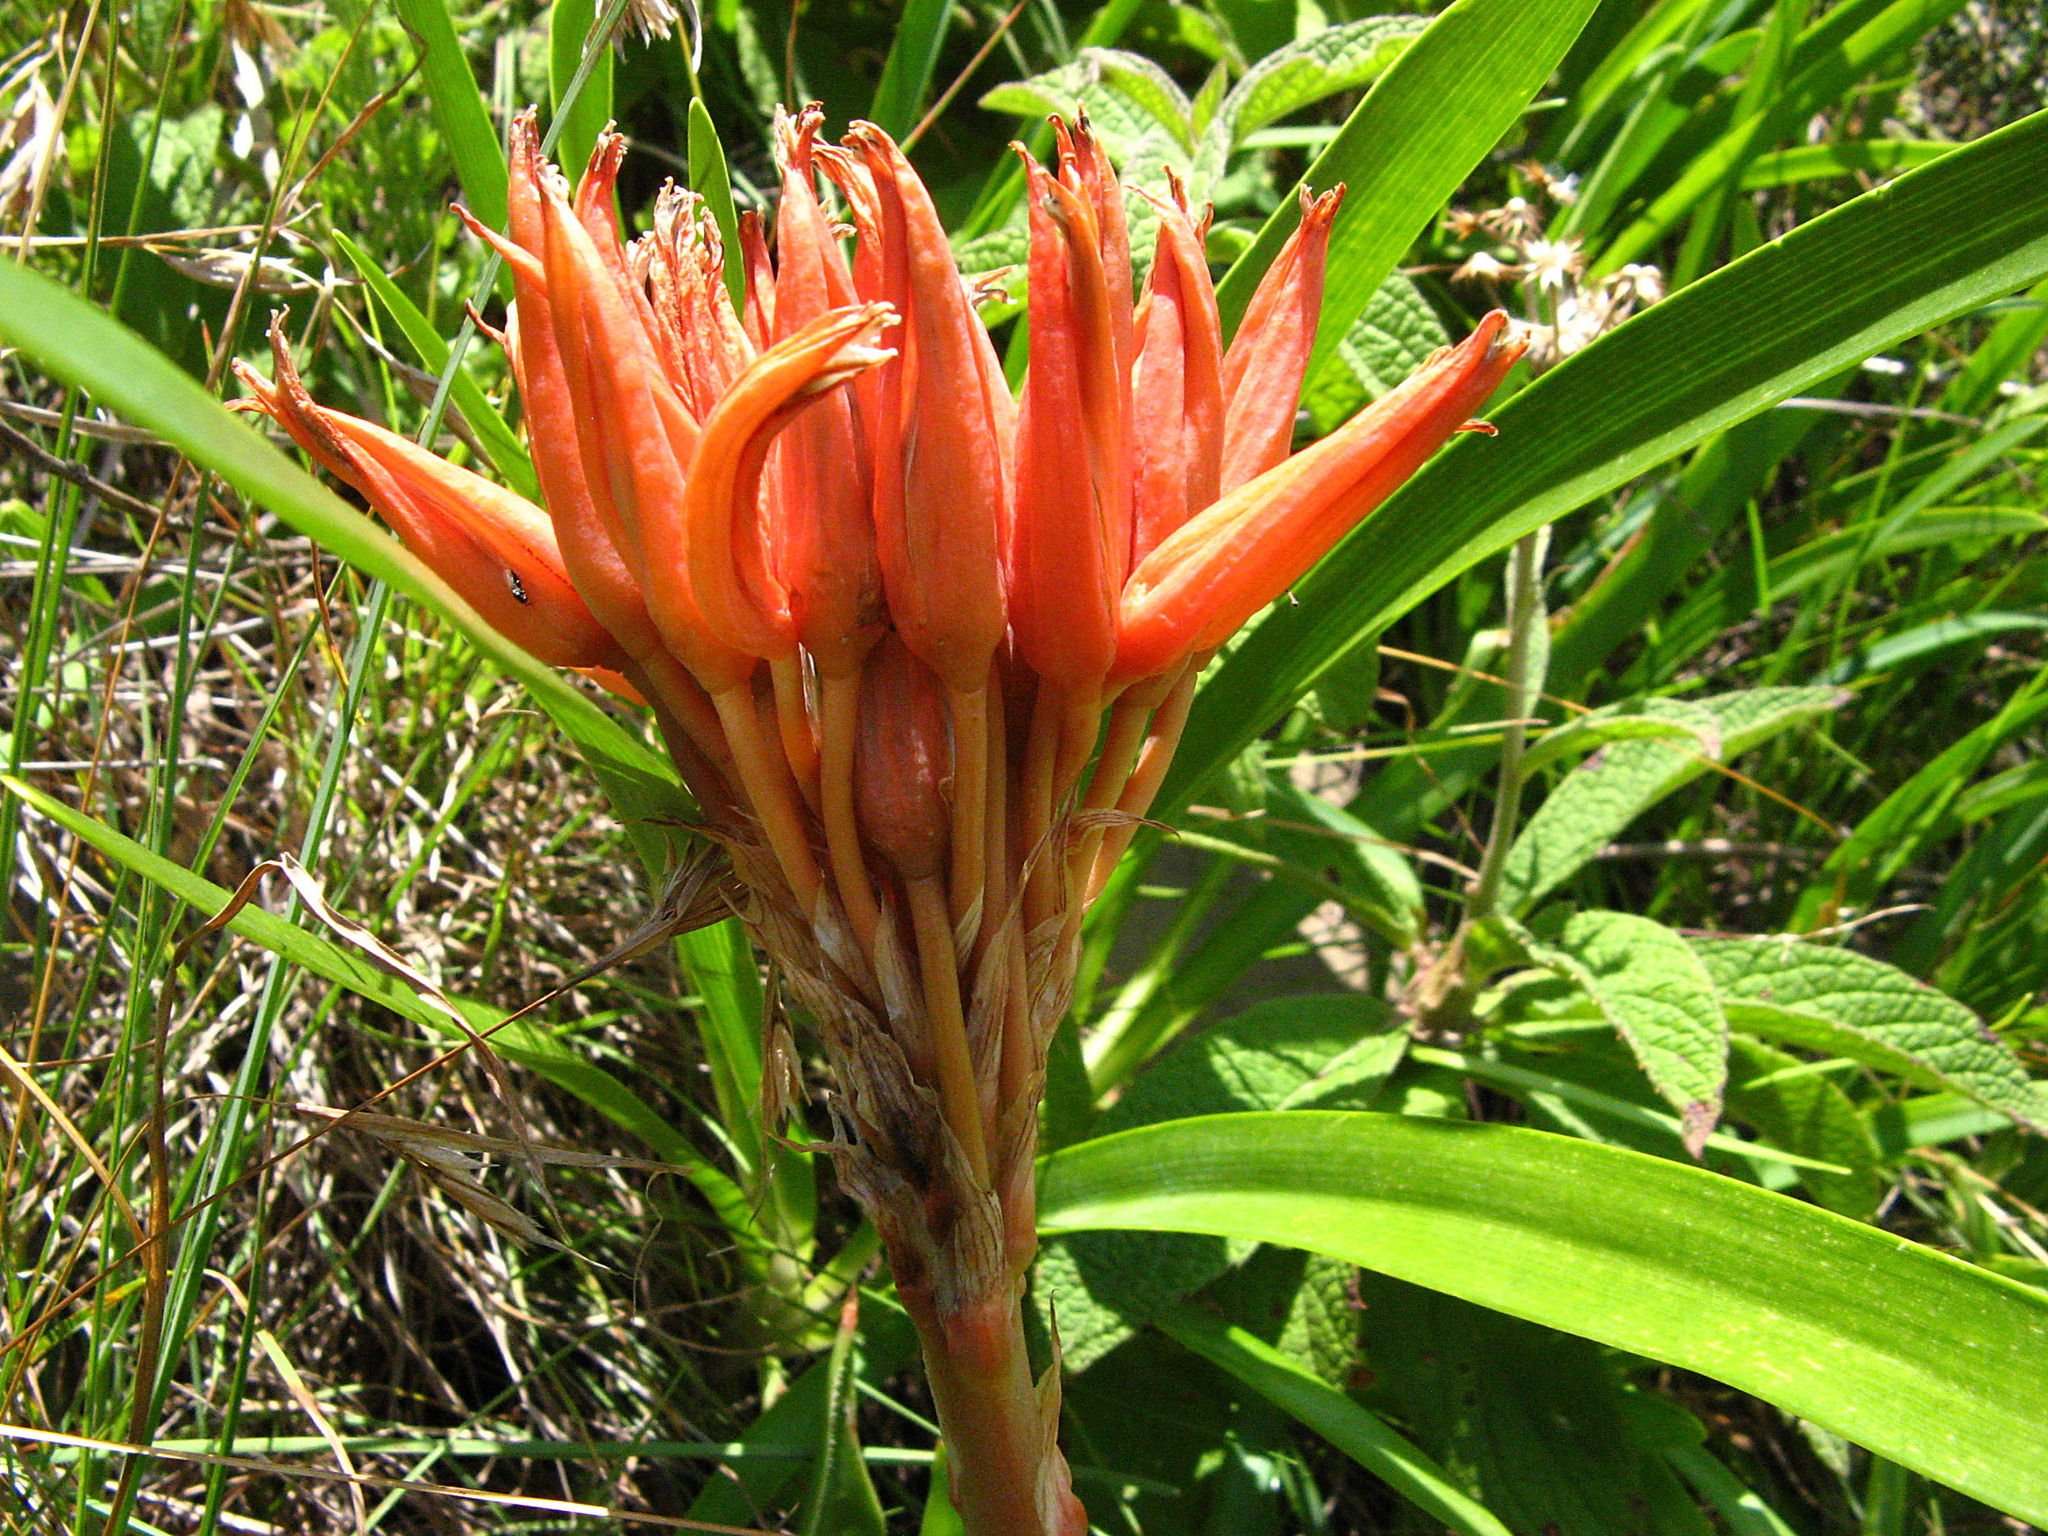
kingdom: Plantae
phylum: Tracheophyta
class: Liliopsida
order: Asparagales
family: Asphodelaceae
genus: Aloe
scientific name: Aloe ecklonis
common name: Ecklon's aloe
